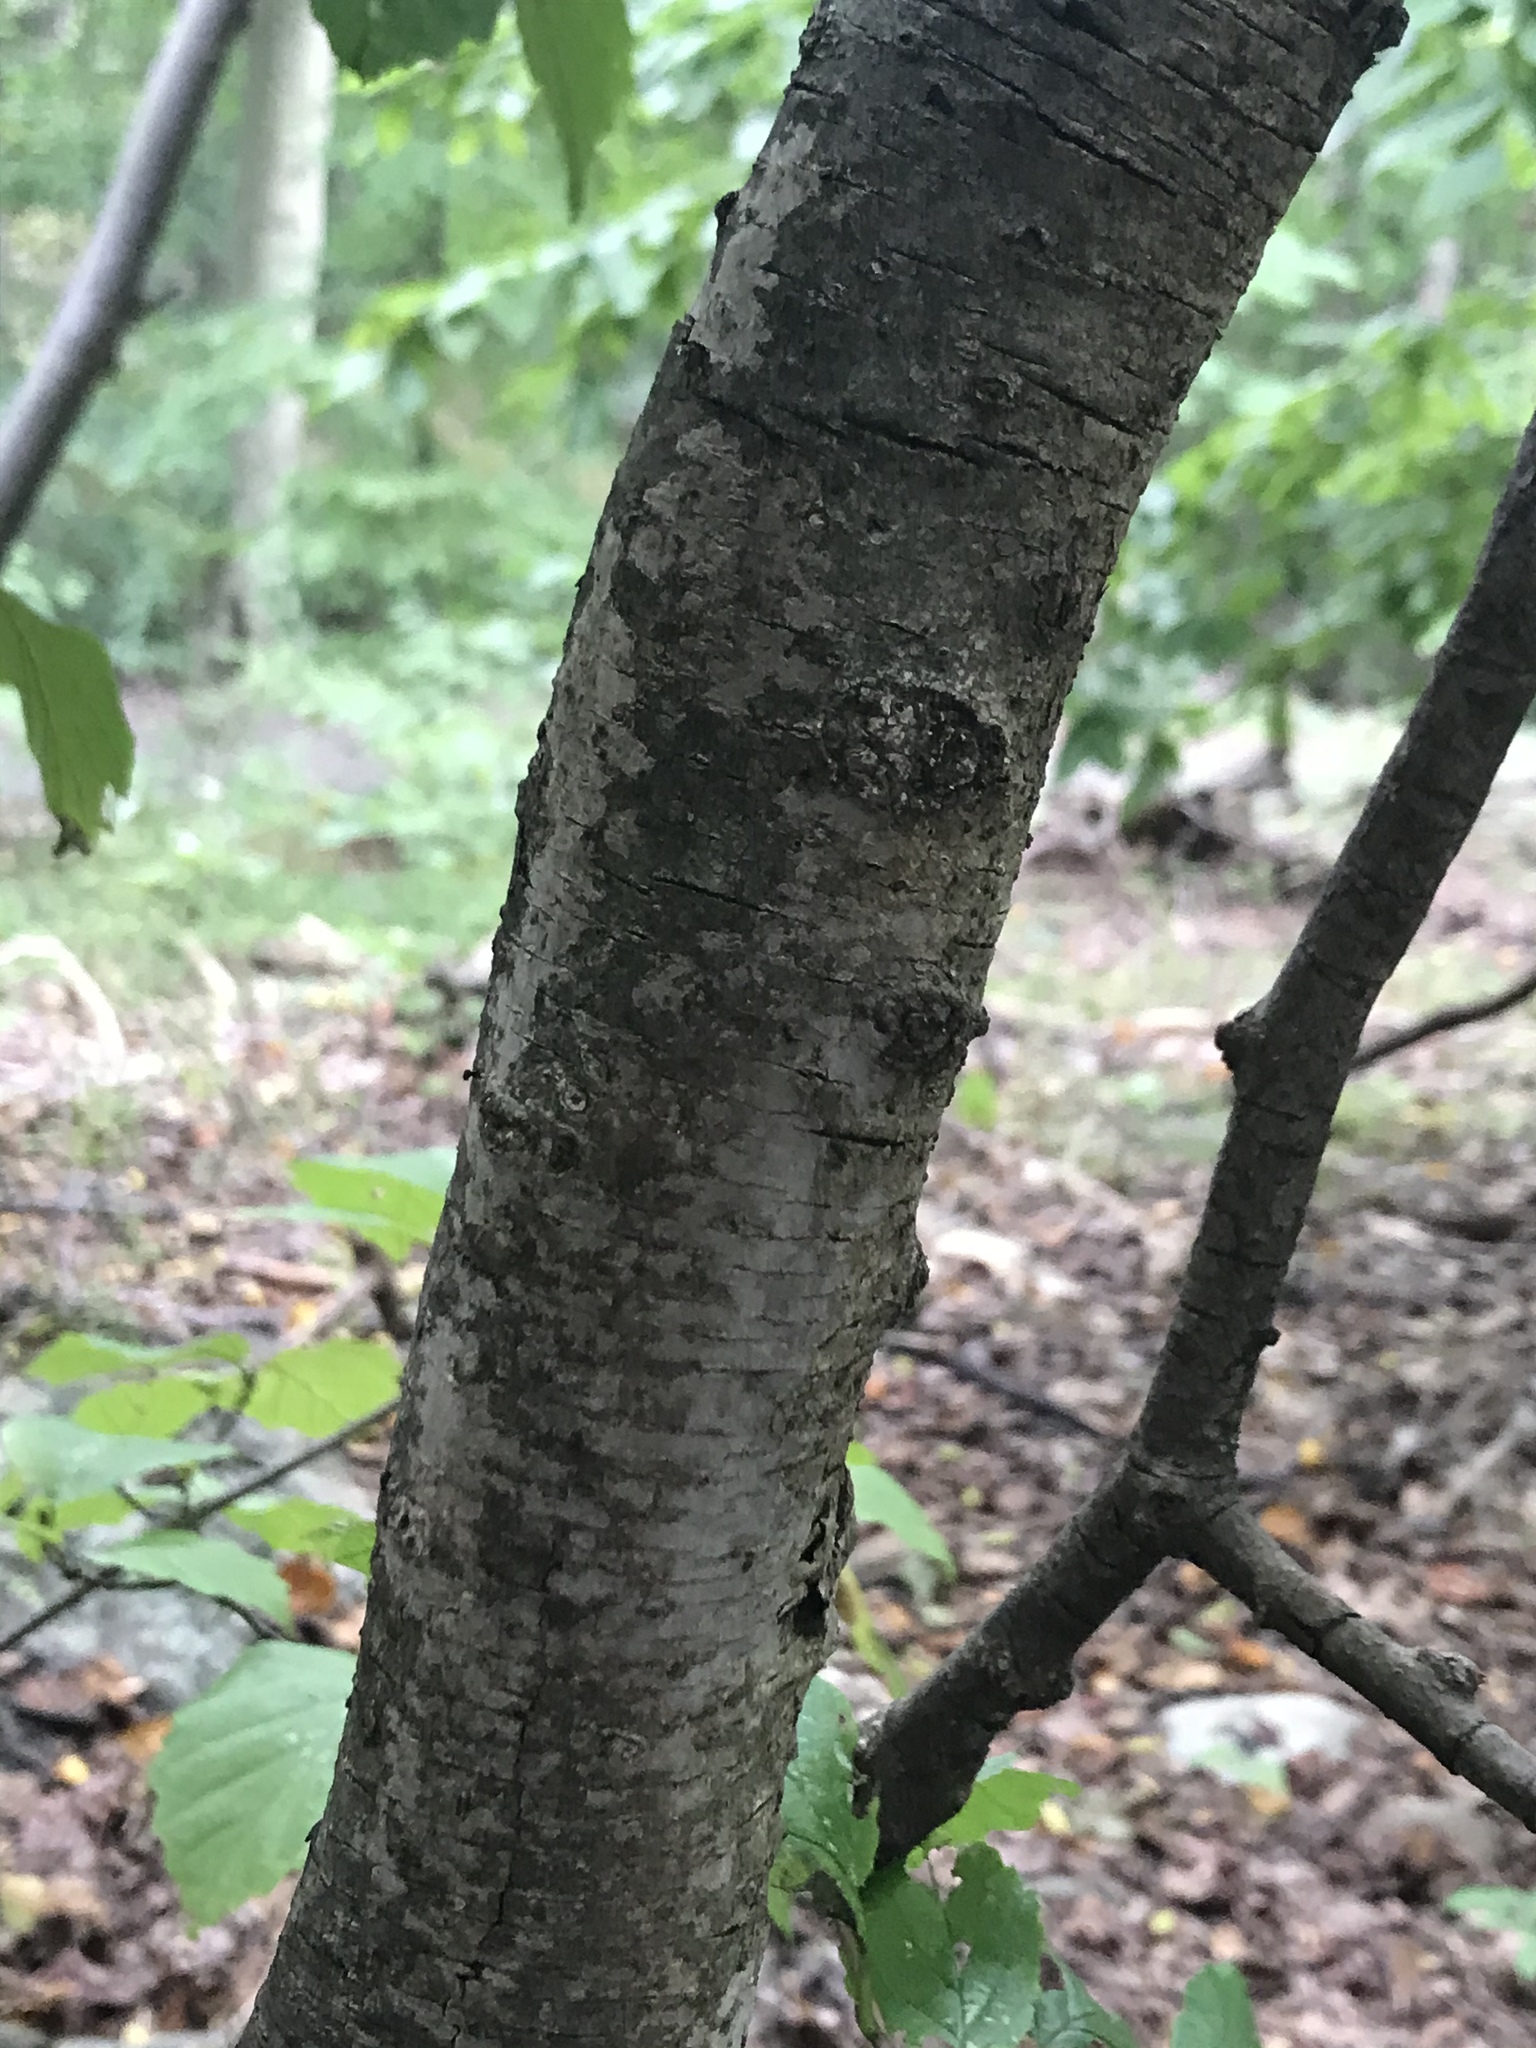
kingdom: Plantae
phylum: Tracheophyta
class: Magnoliopsida
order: Saxifragales
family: Hamamelidaceae
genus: Hamamelis
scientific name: Hamamelis virginiana
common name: Witch-hazel
